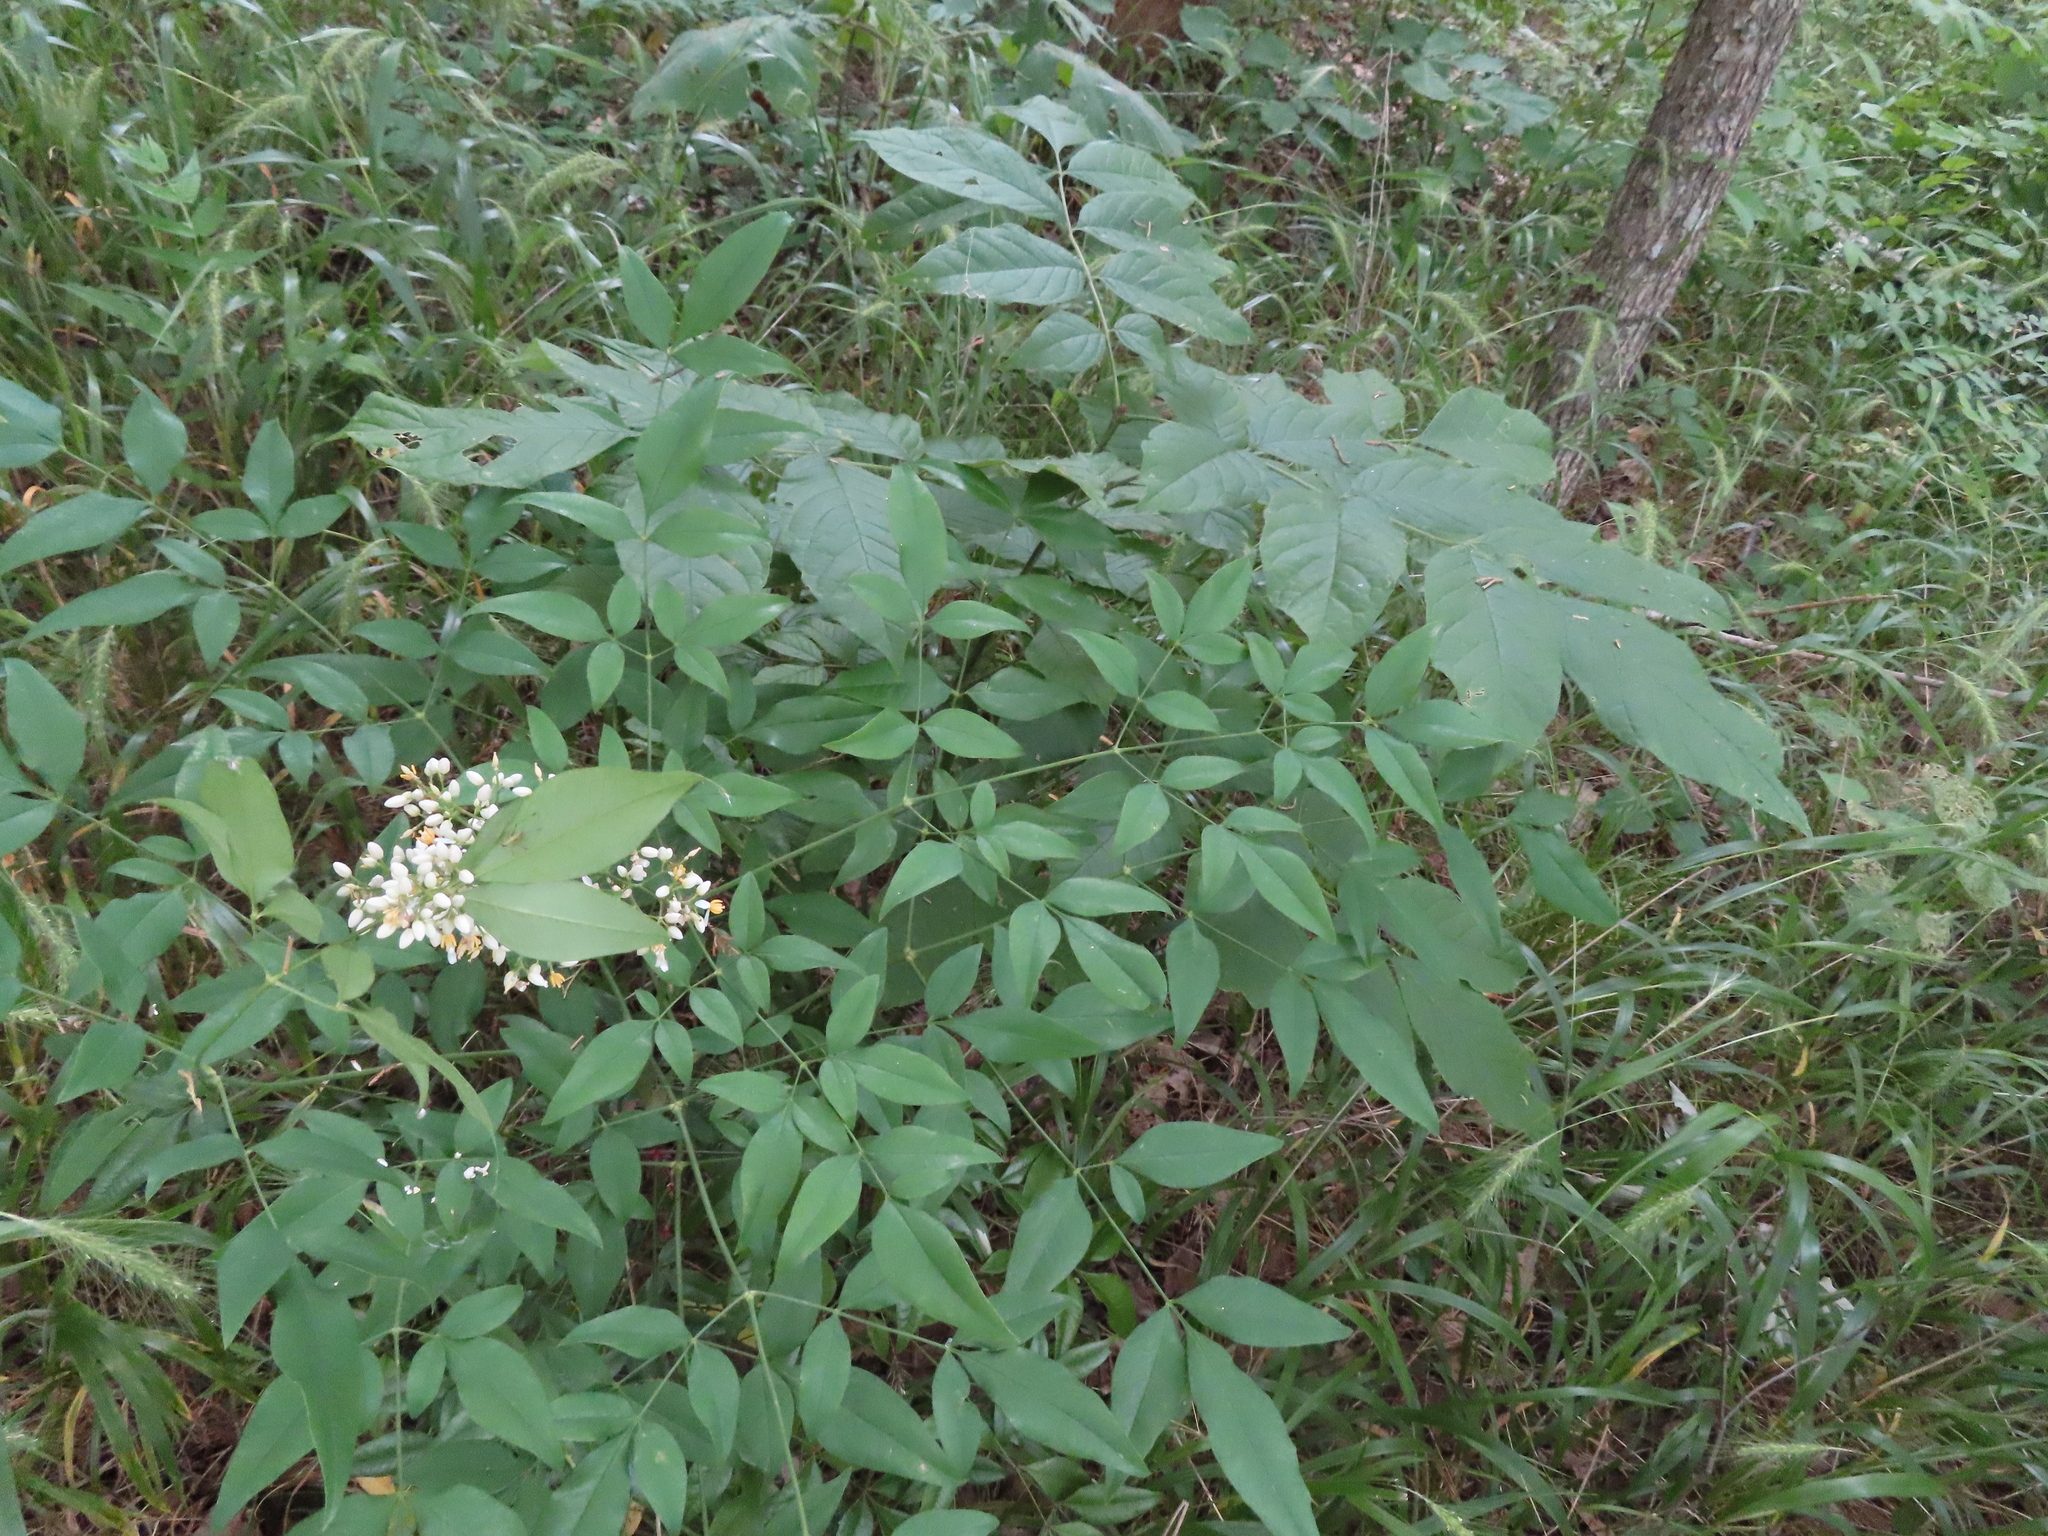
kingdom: Plantae
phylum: Tracheophyta
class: Magnoliopsida
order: Ranunculales
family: Berberidaceae
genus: Nandina
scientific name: Nandina domestica
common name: Sacred bamboo
